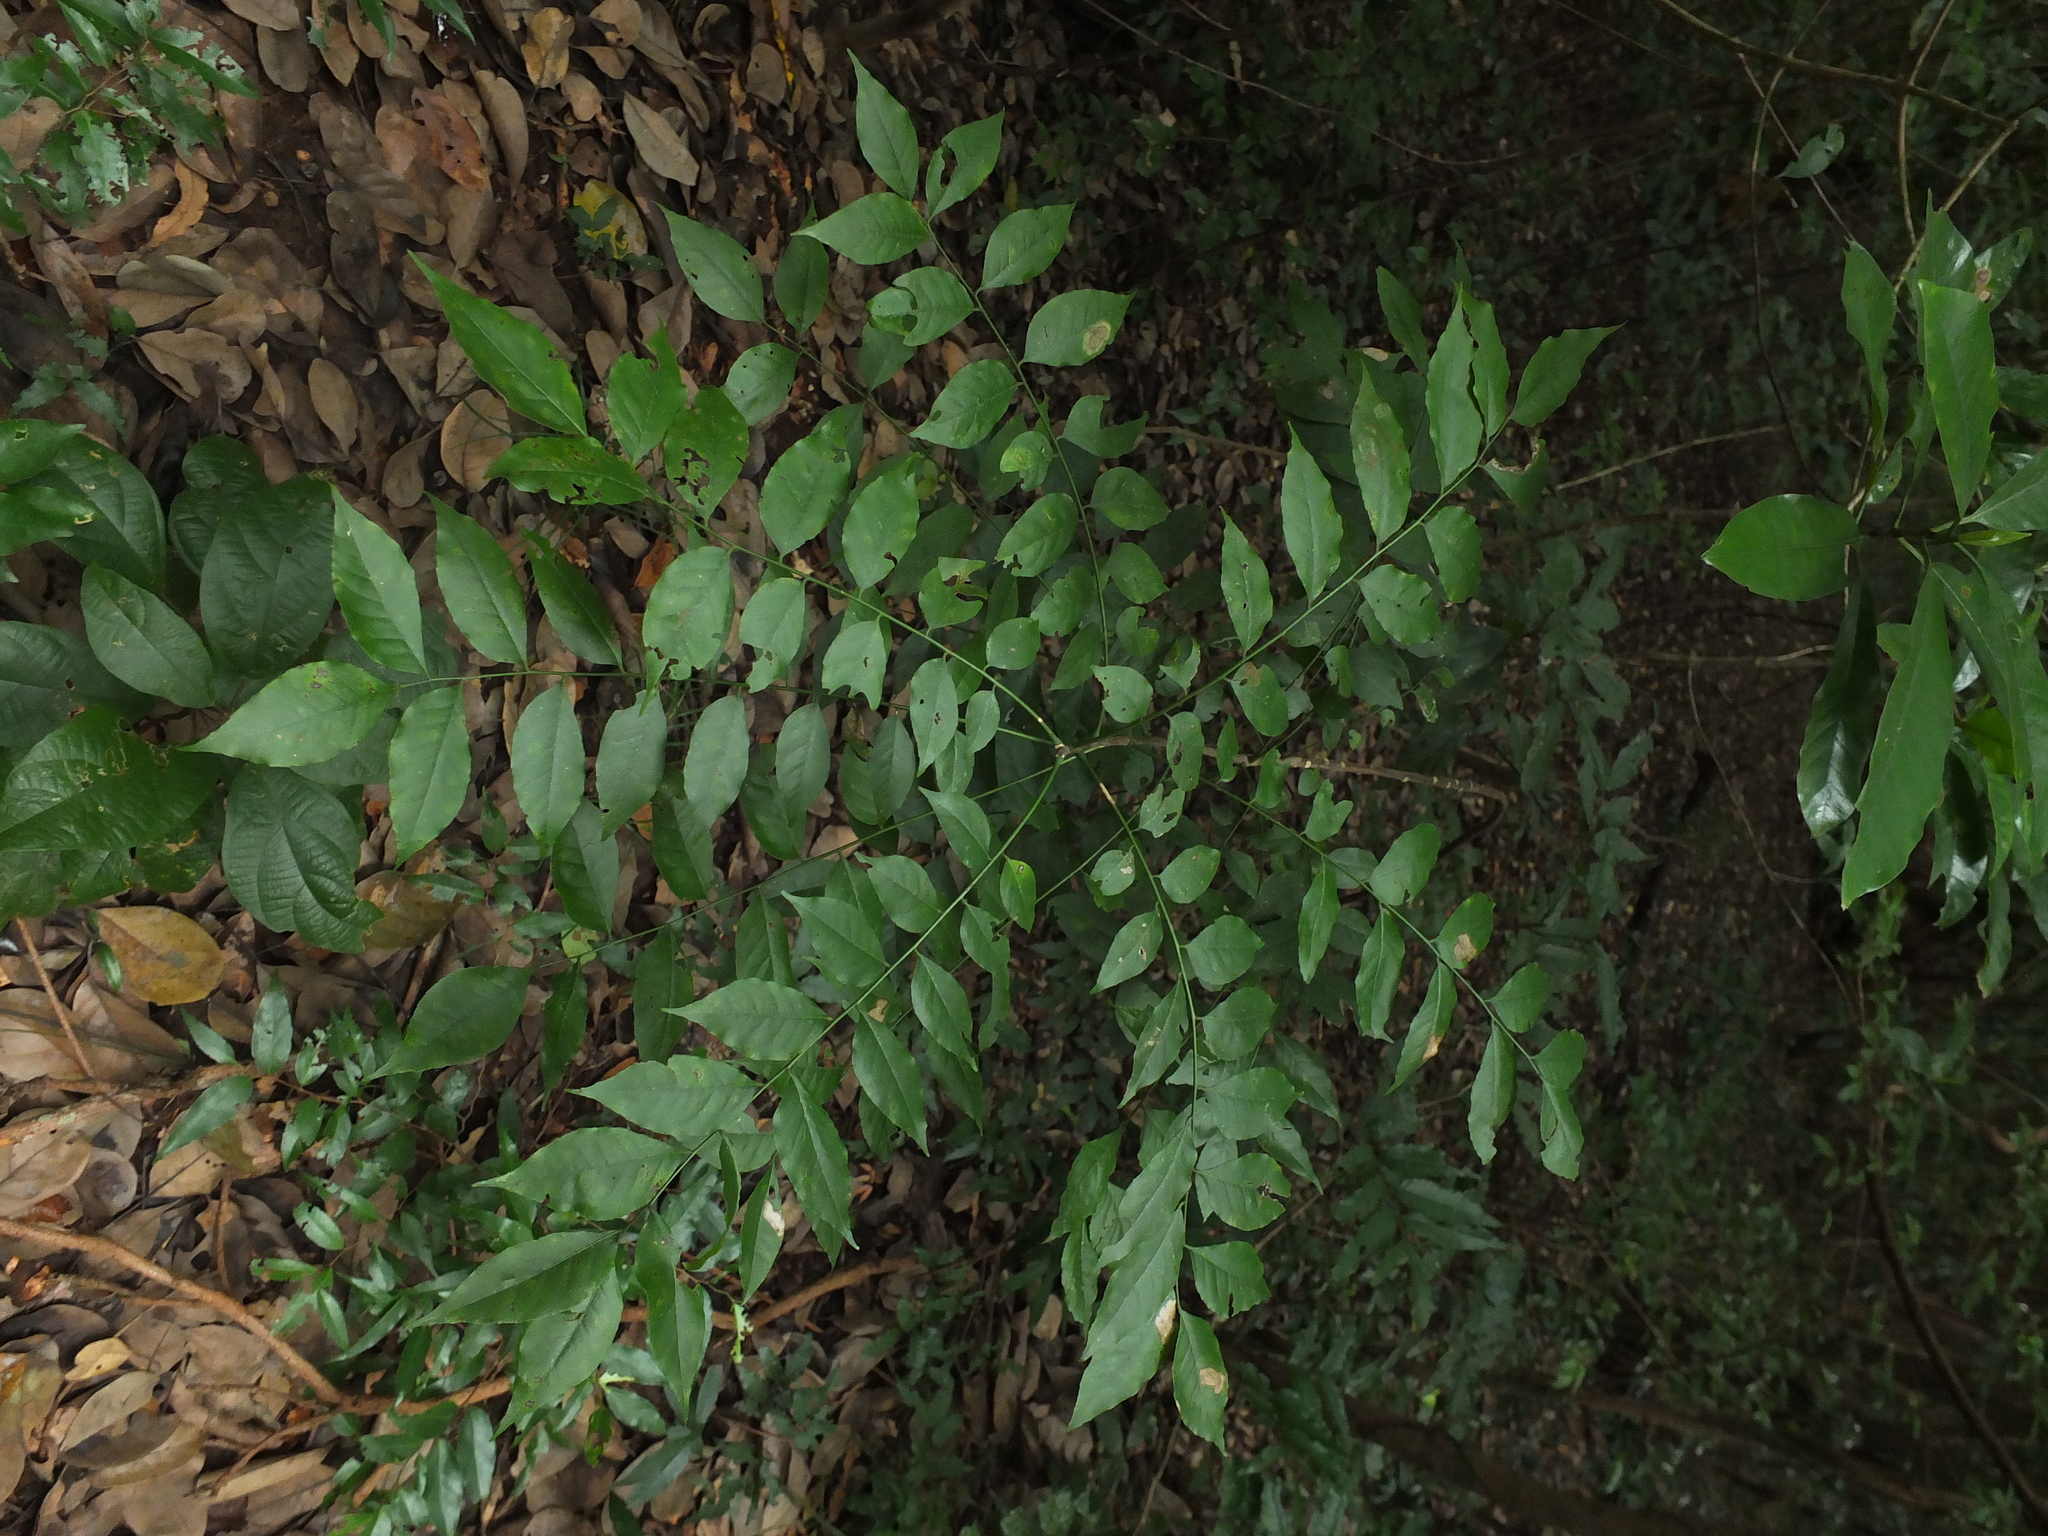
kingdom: Plantae
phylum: Tracheophyta
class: Magnoliopsida
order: Sapindales
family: Rutaceae
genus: Clausena
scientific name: Clausena anisata
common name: Horsewood
